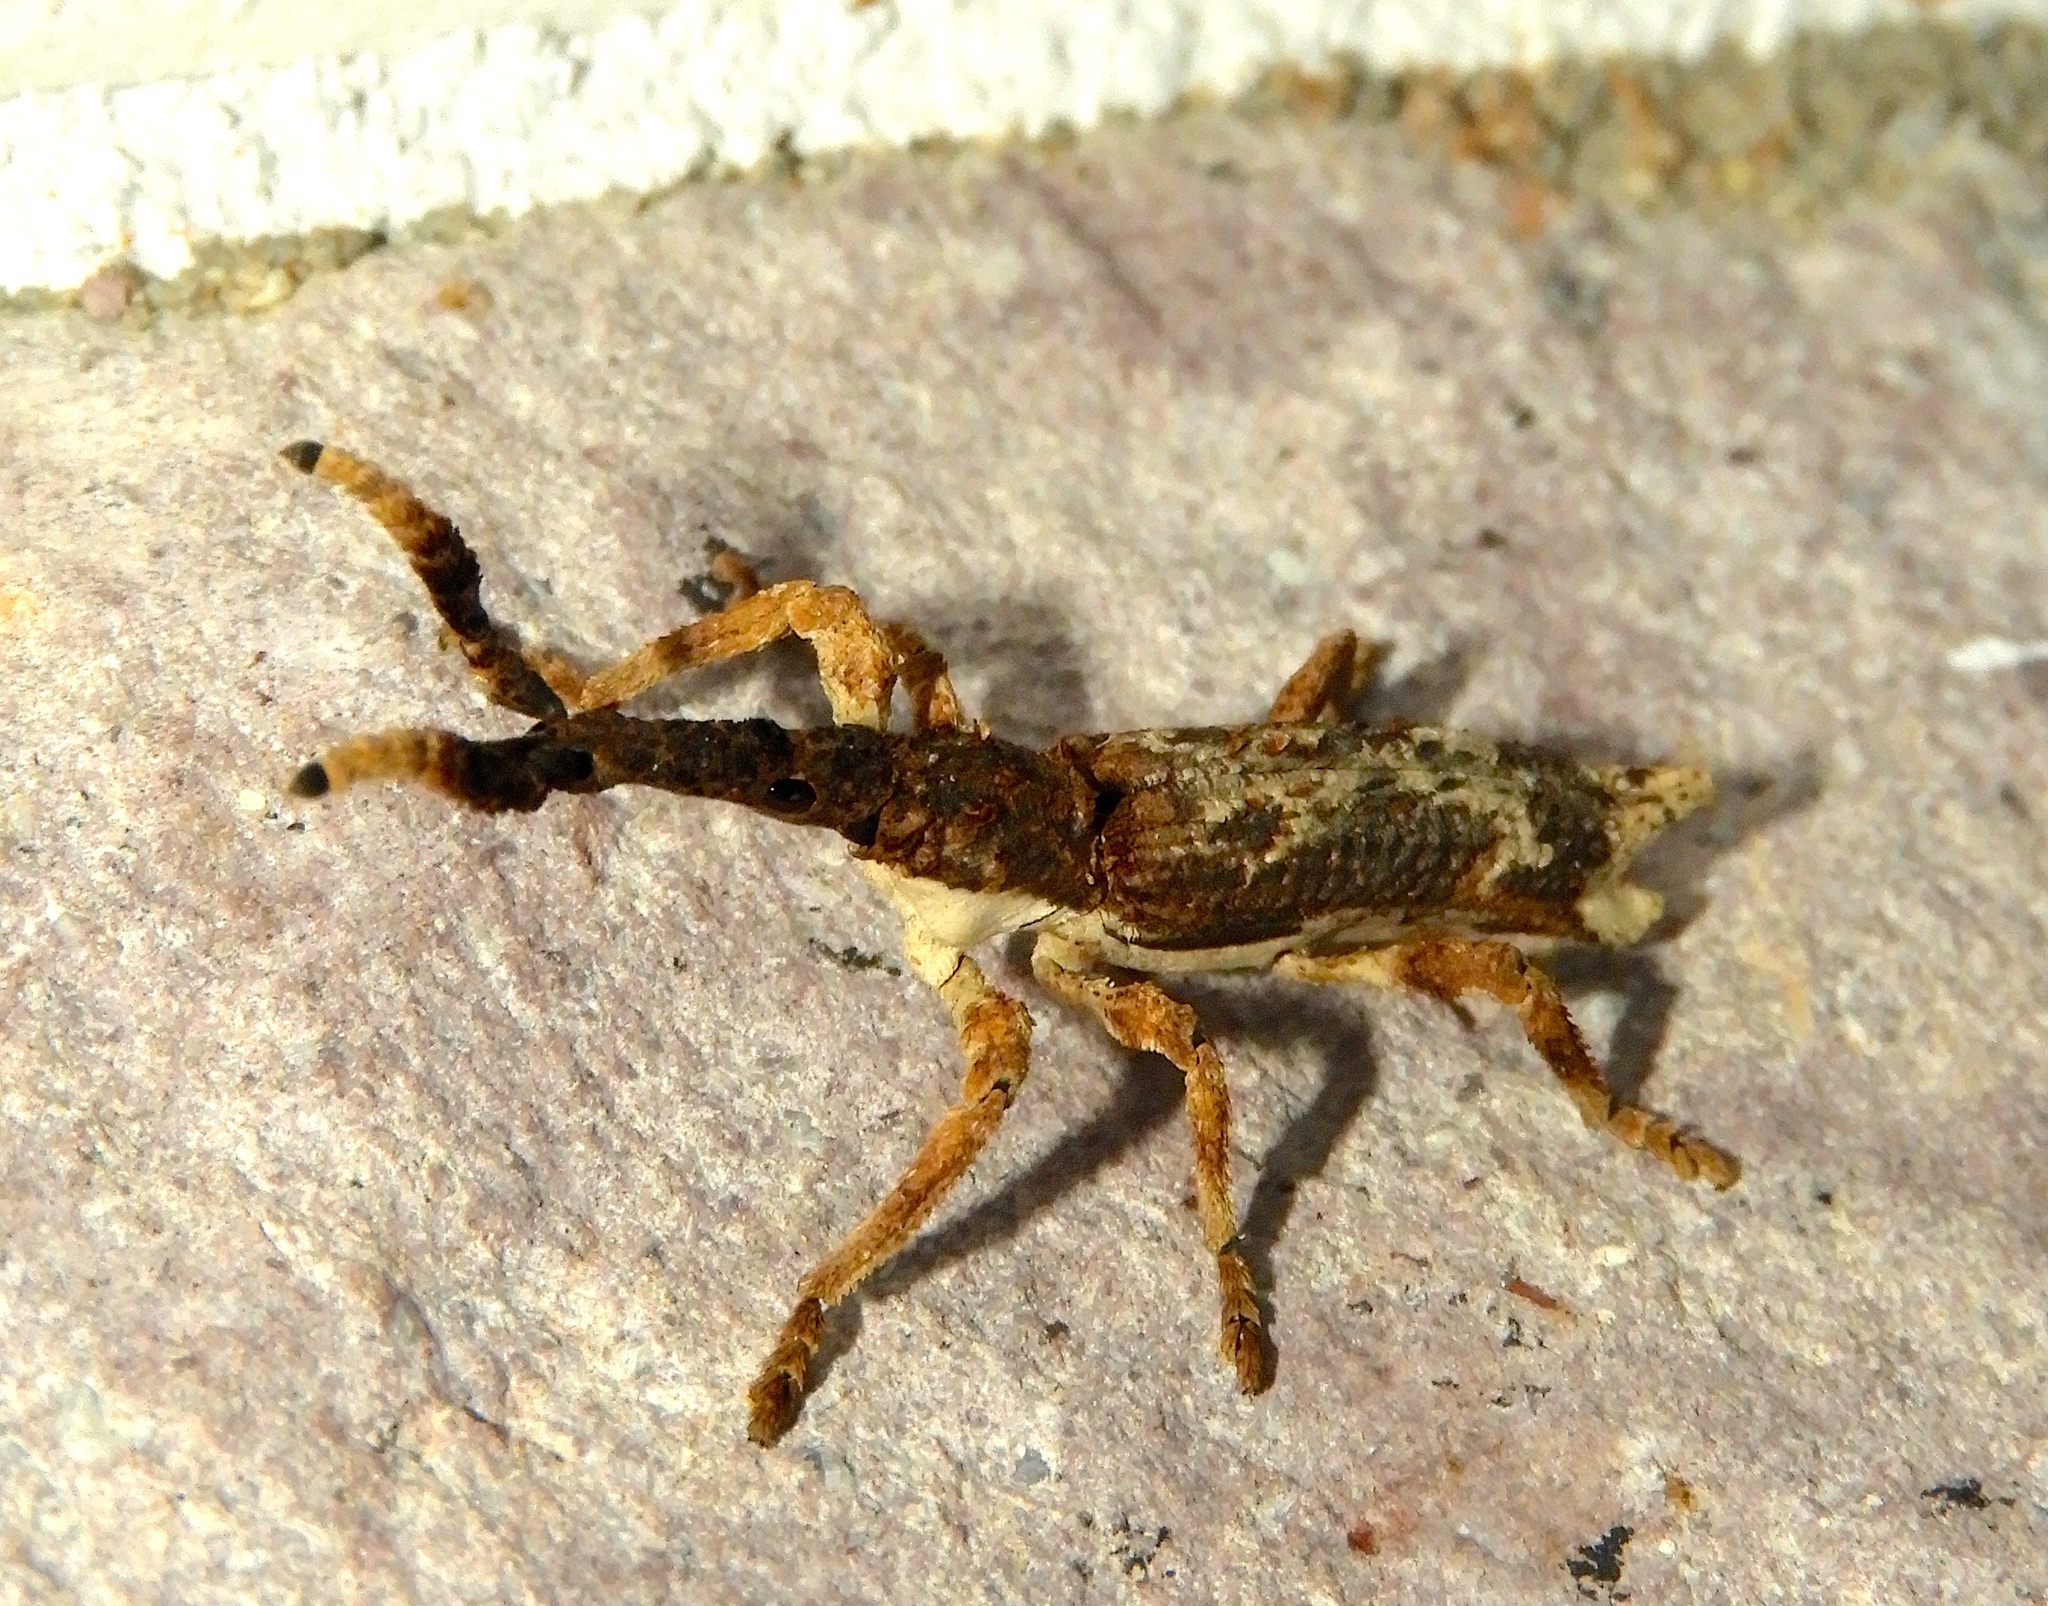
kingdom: Animalia
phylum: Arthropoda
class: Insecta
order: Coleoptera
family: Brentidae
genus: Ulocerus
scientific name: Ulocerus mexicanus
